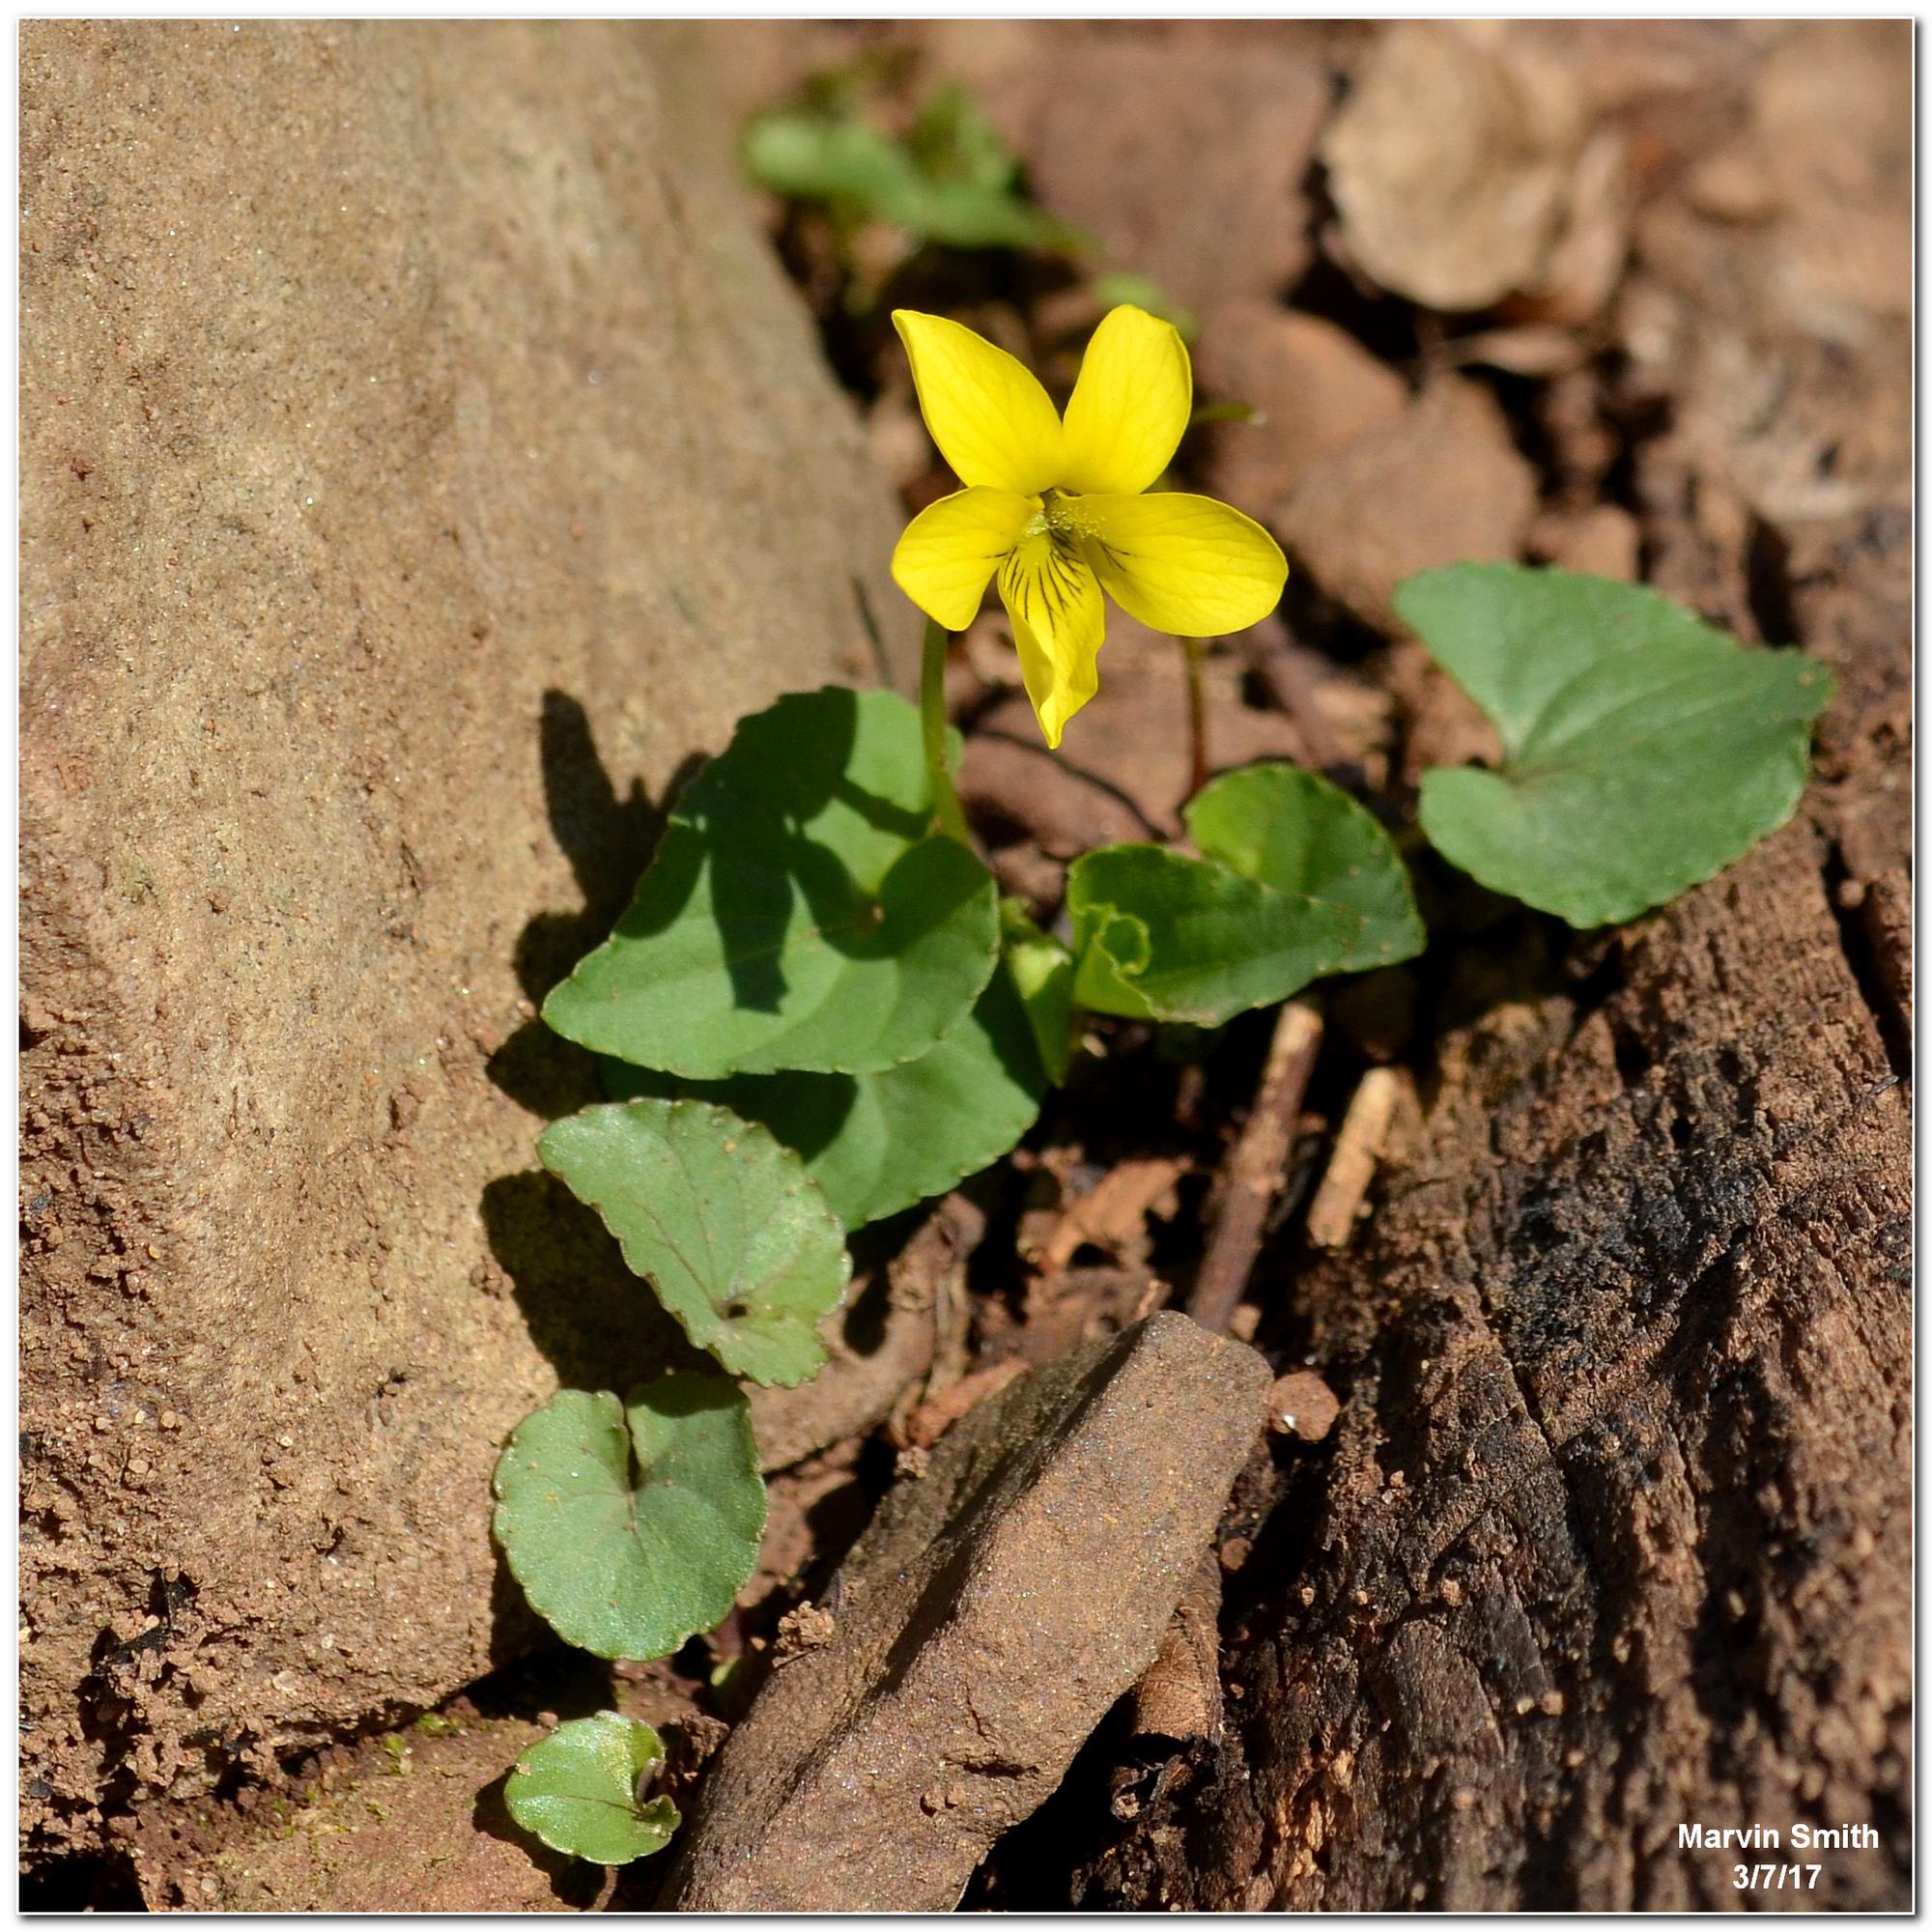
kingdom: Plantae
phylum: Tracheophyta
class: Magnoliopsida
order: Malpighiales
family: Violaceae
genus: Viola
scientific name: Viola eriocarpa
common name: Smooth yellow violet
